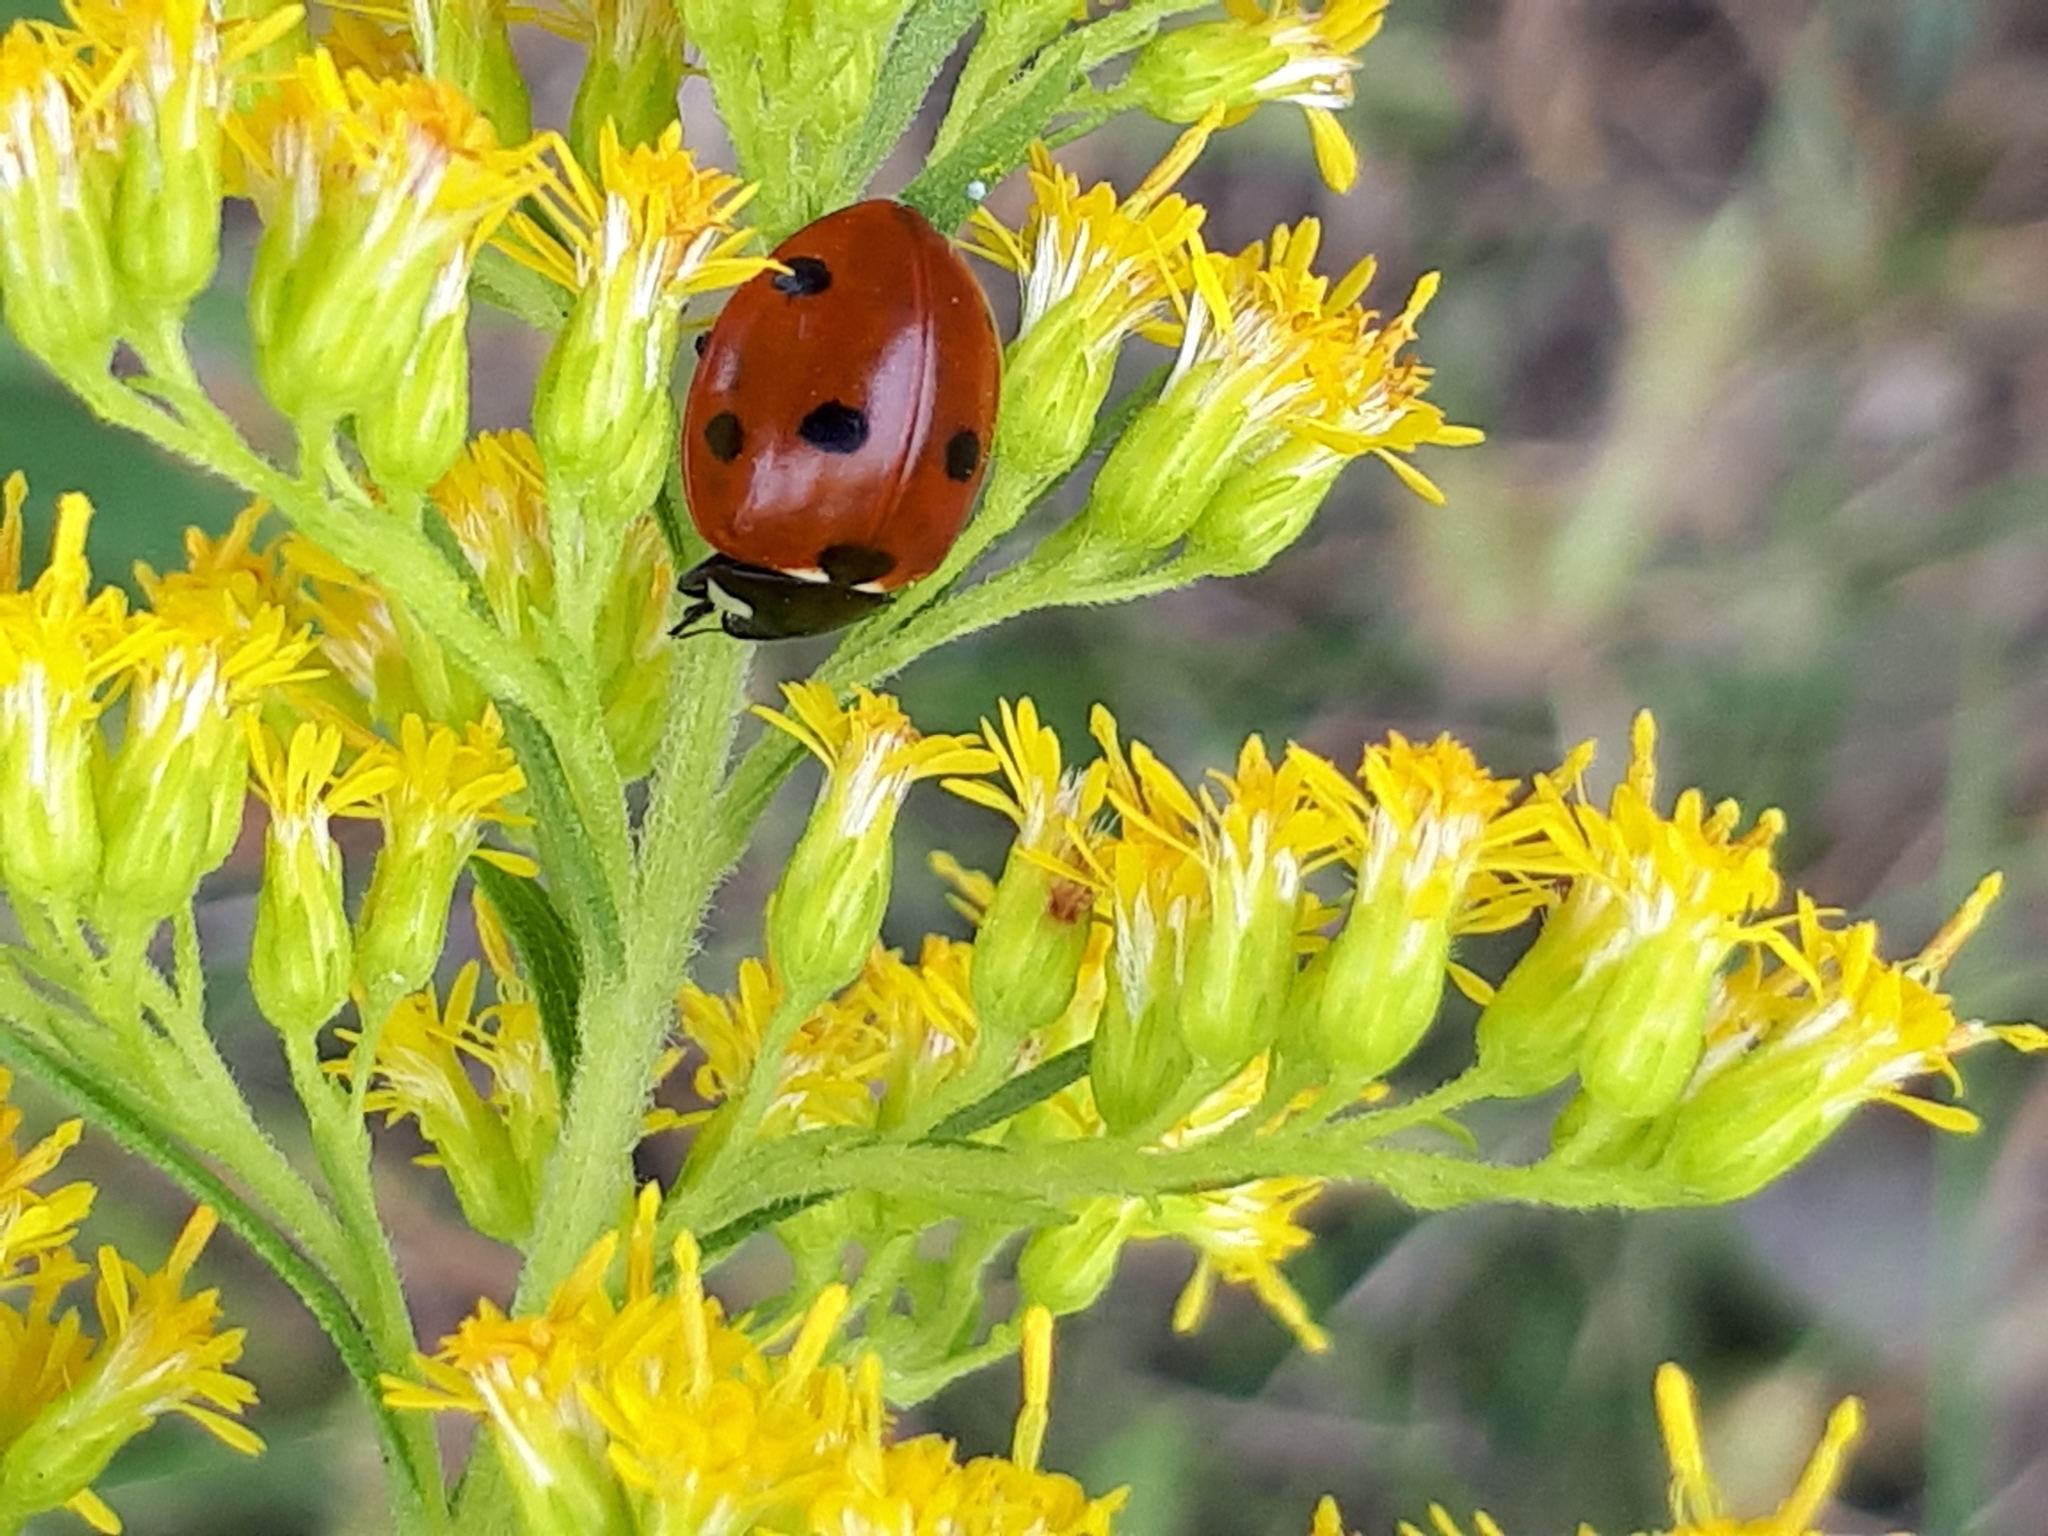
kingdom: Animalia
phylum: Arthropoda
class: Insecta
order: Coleoptera
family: Coccinellidae
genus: Coccinella
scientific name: Coccinella septempunctata
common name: Sevenspotted lady beetle
